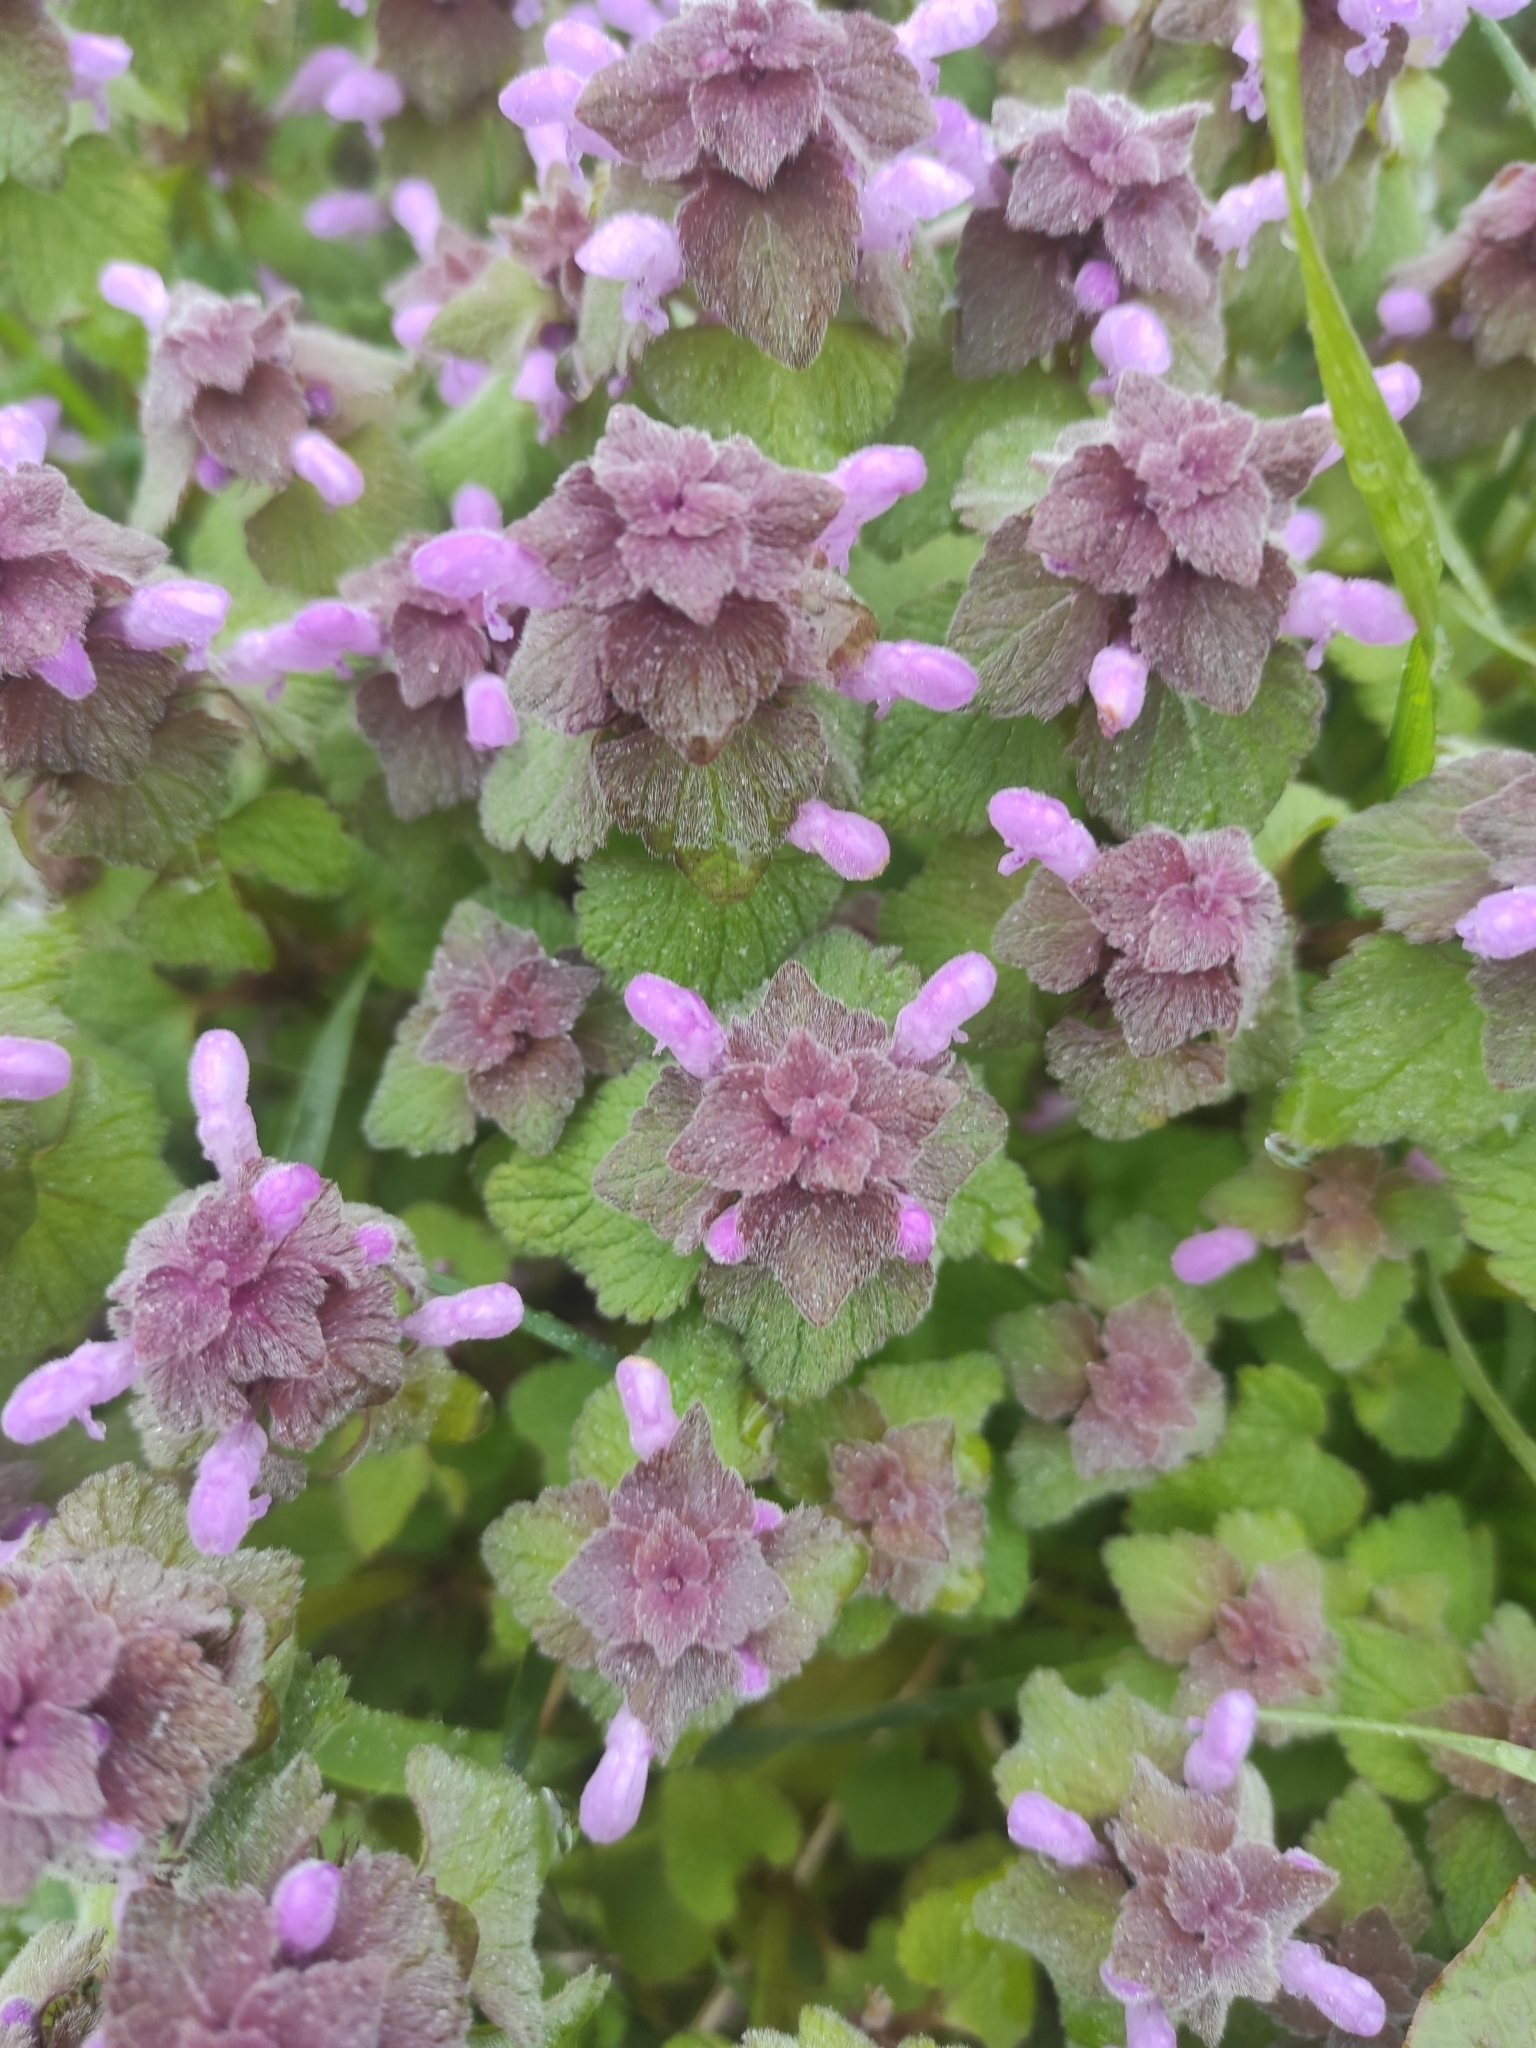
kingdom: Plantae
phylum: Tracheophyta
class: Magnoliopsida
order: Lamiales
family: Lamiaceae
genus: Lamium
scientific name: Lamium purpureum
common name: Red dead-nettle
